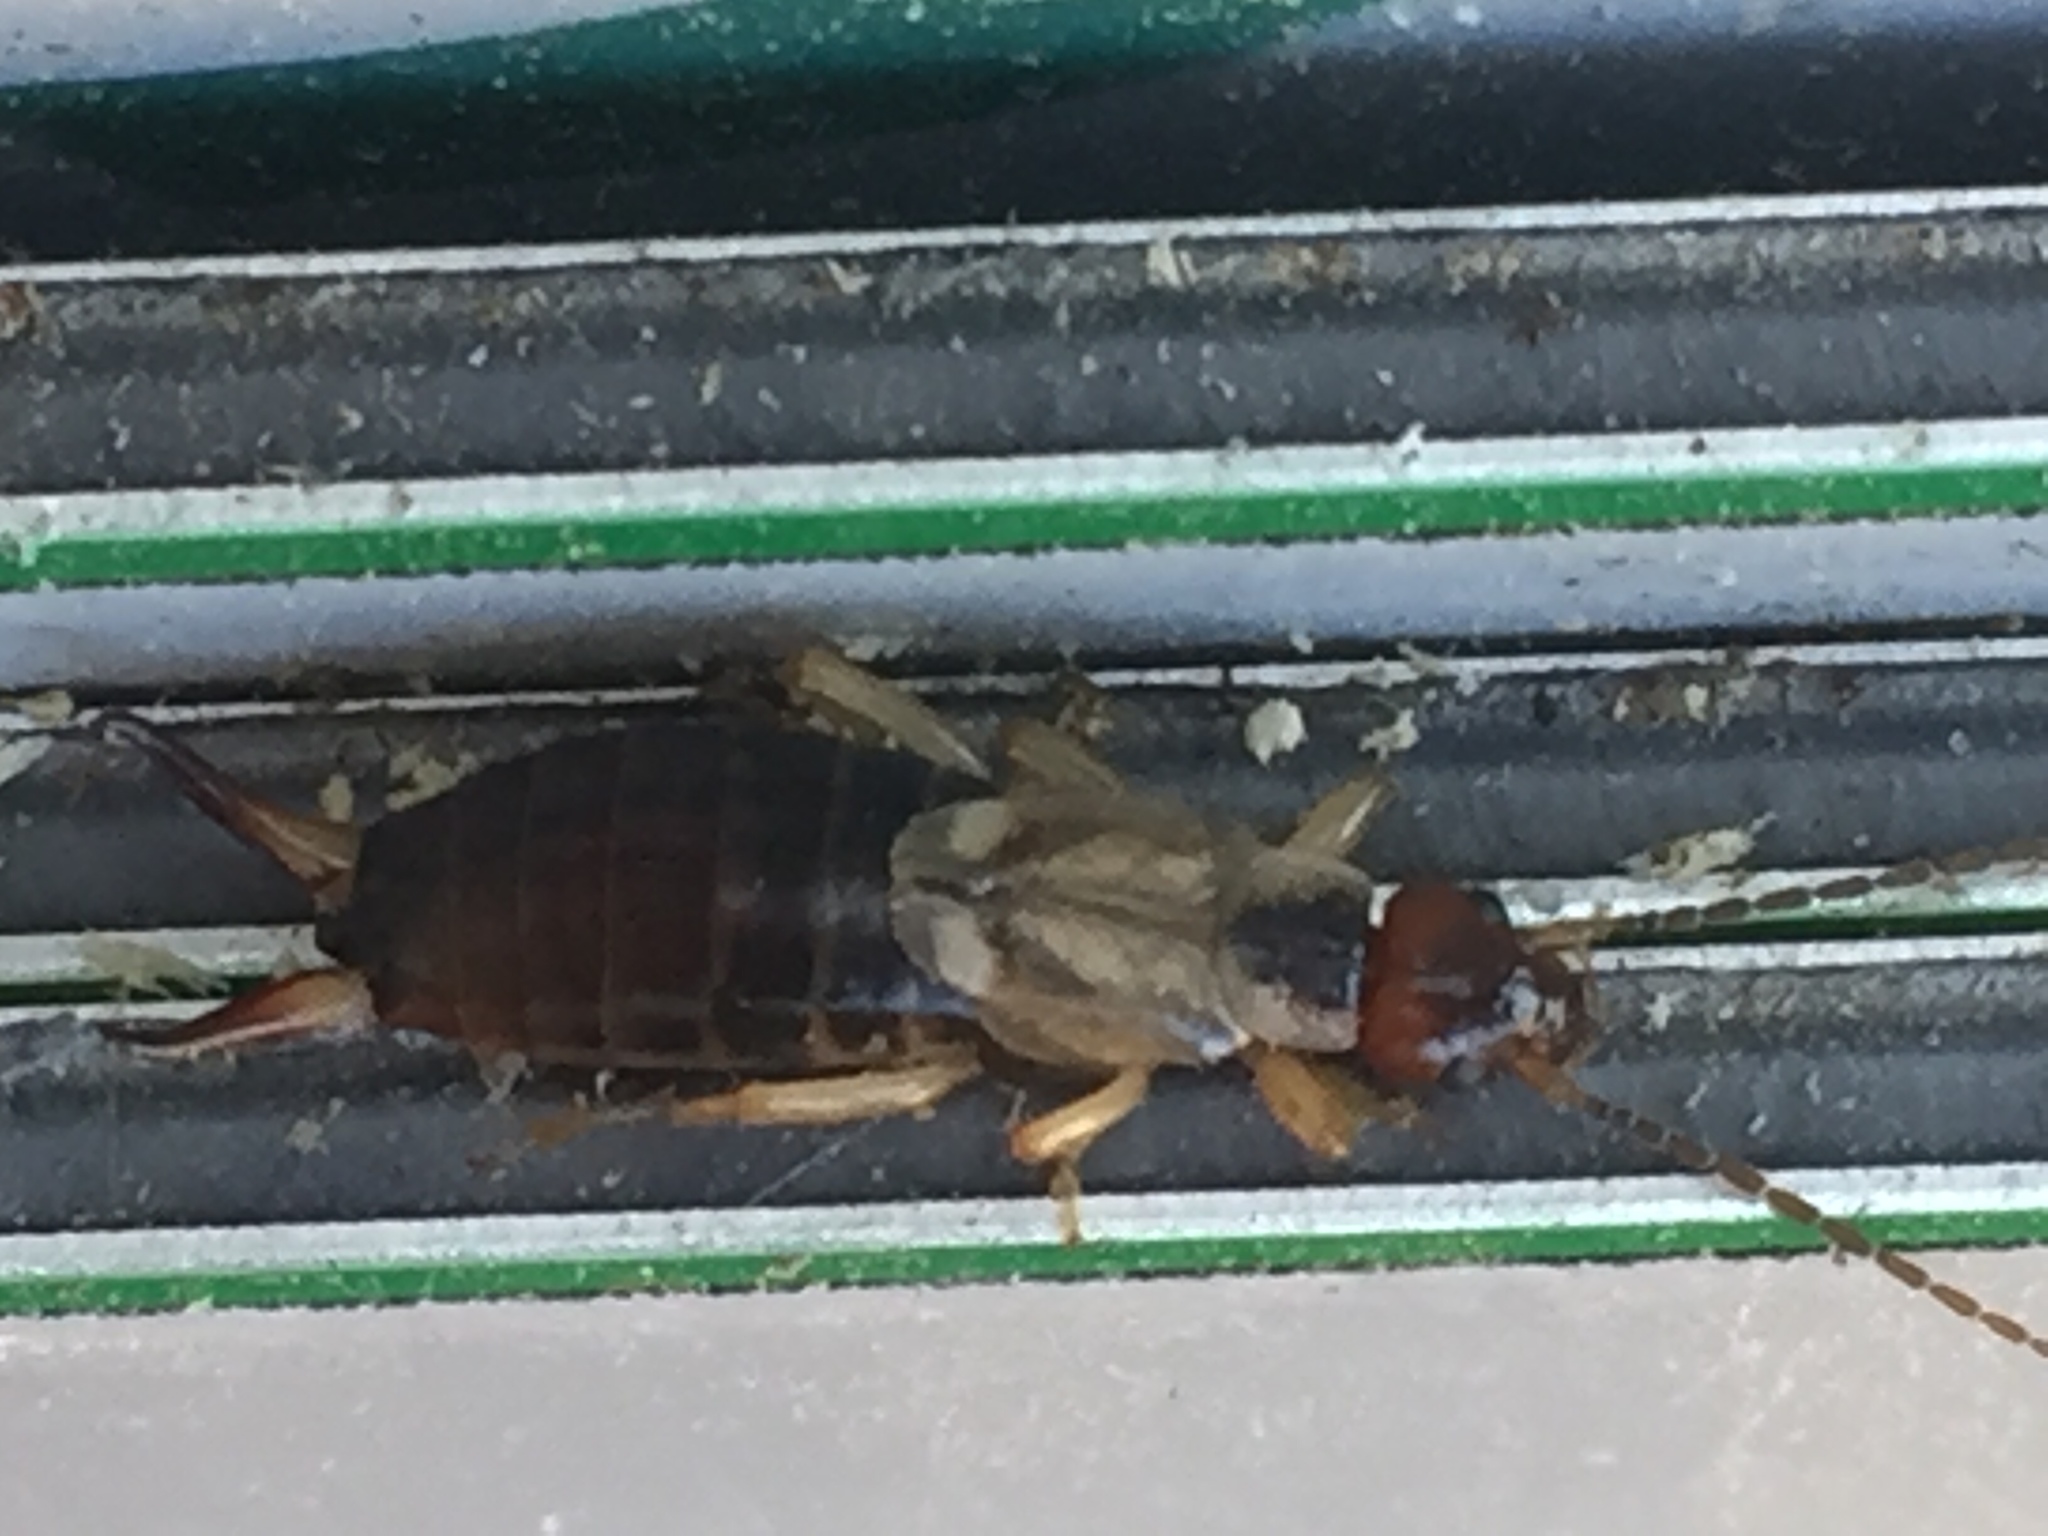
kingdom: Animalia
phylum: Arthropoda
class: Insecta
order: Dermaptera
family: Forficulidae
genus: Forficula
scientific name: Forficula
